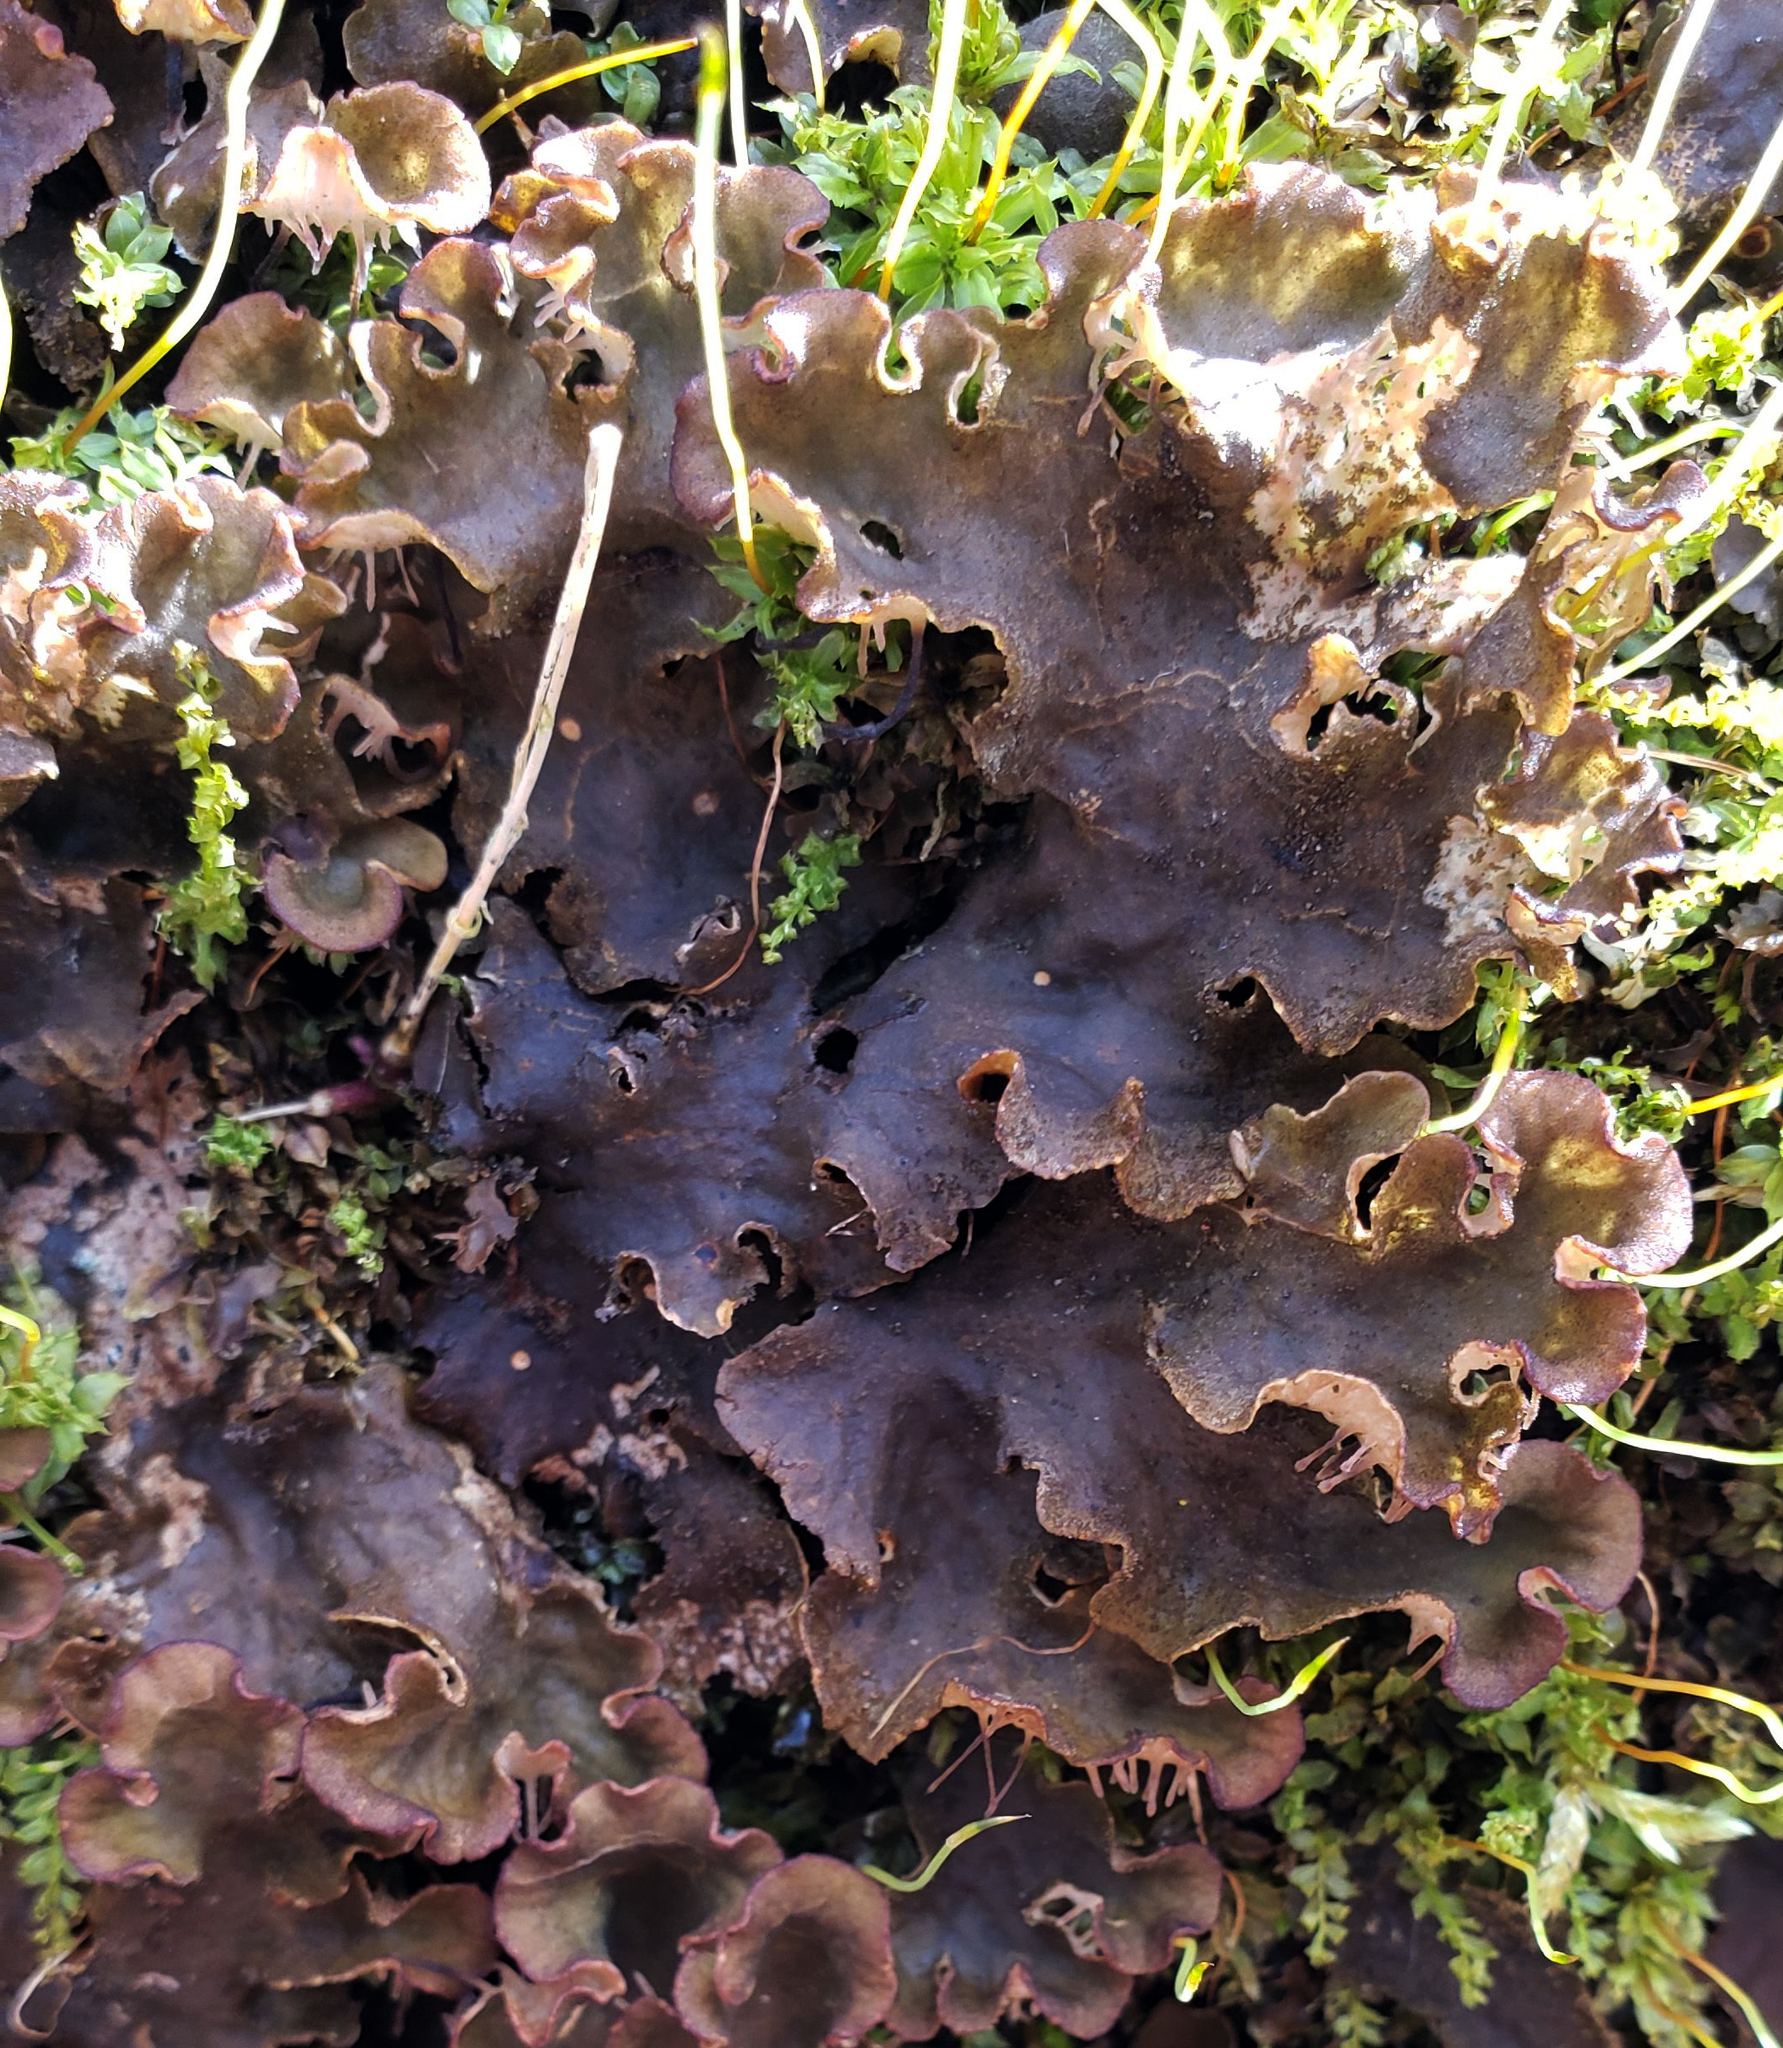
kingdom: Fungi
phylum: Ascomycota
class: Lecanoromycetes
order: Peltigerales
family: Peltigeraceae
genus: Peltigera
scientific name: Peltigera evansiana
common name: Peppered pelt lichen
